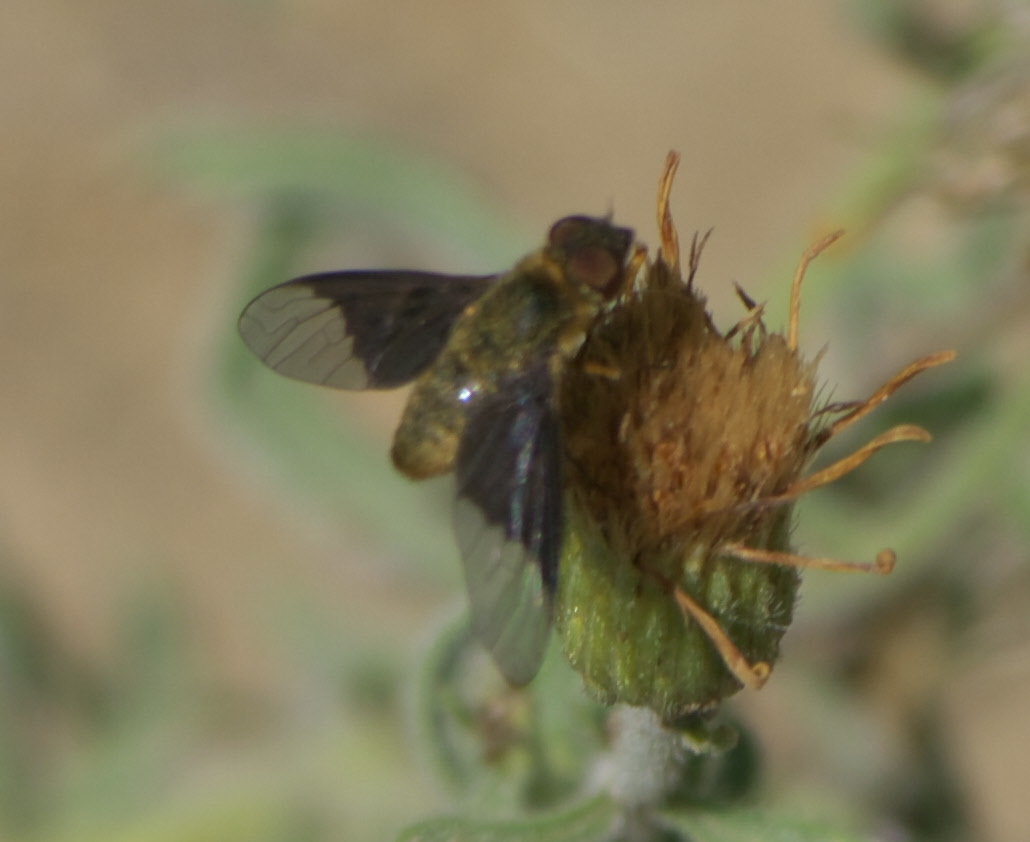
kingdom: Animalia
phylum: Arthropoda
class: Insecta
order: Diptera
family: Bombyliidae
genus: Chrysanthrax
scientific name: Chrysanthrax cypris
